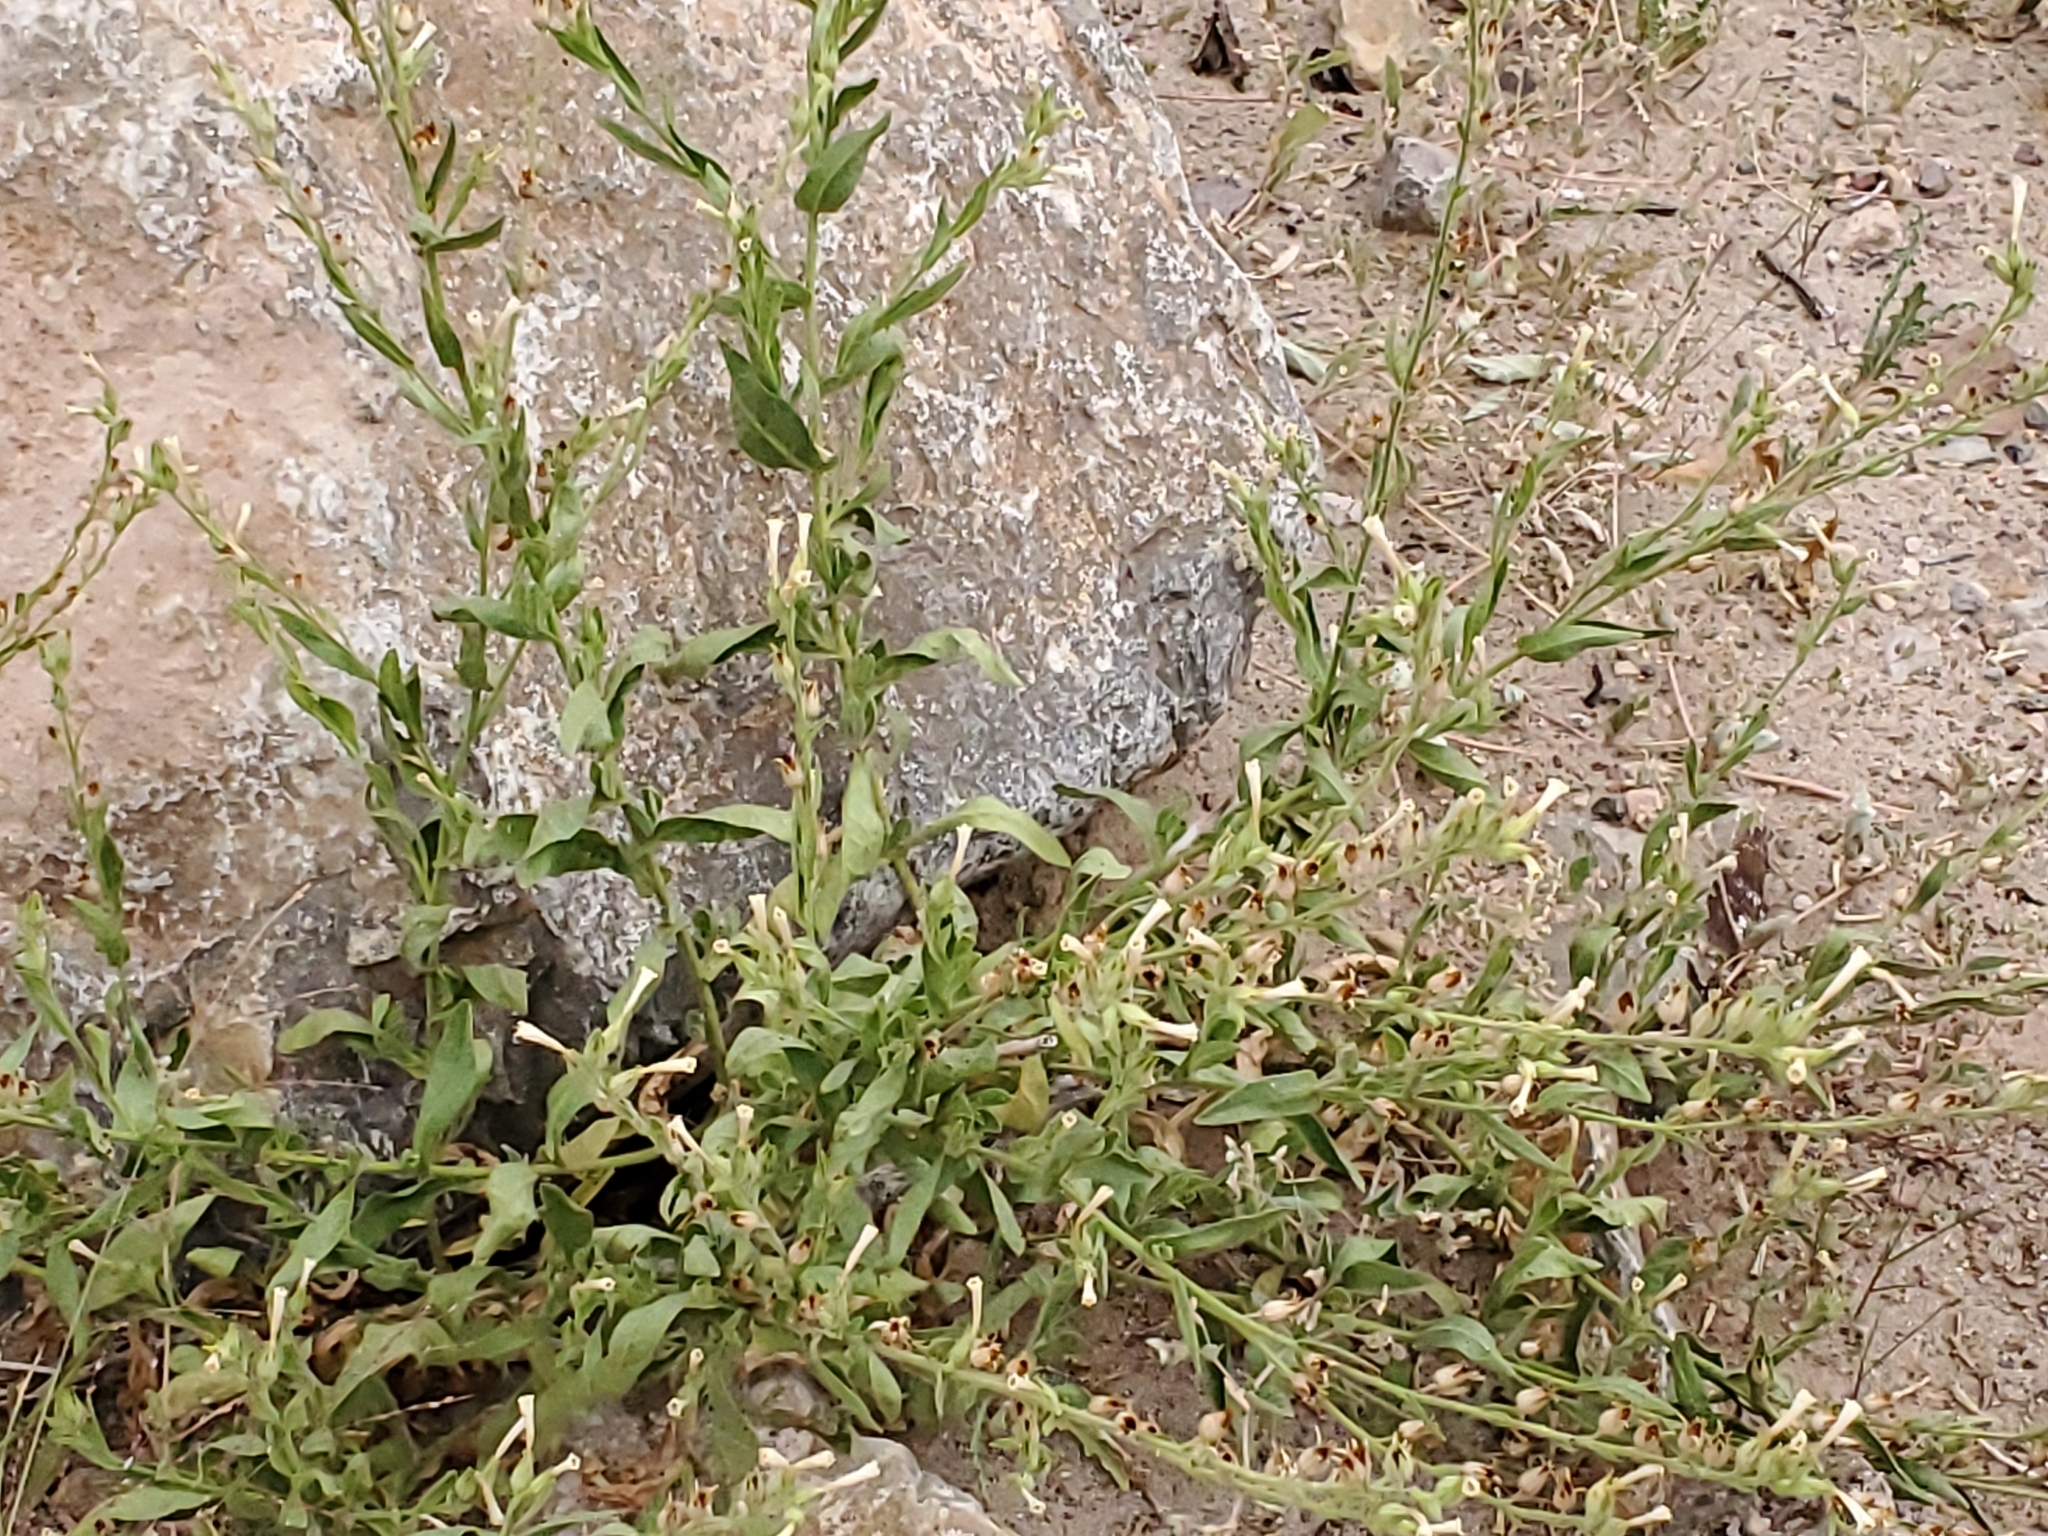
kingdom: Plantae
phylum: Tracheophyta
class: Magnoliopsida
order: Solanales
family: Solanaceae
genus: Nicotiana
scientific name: Nicotiana obtusifolia
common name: Desert tobacco
